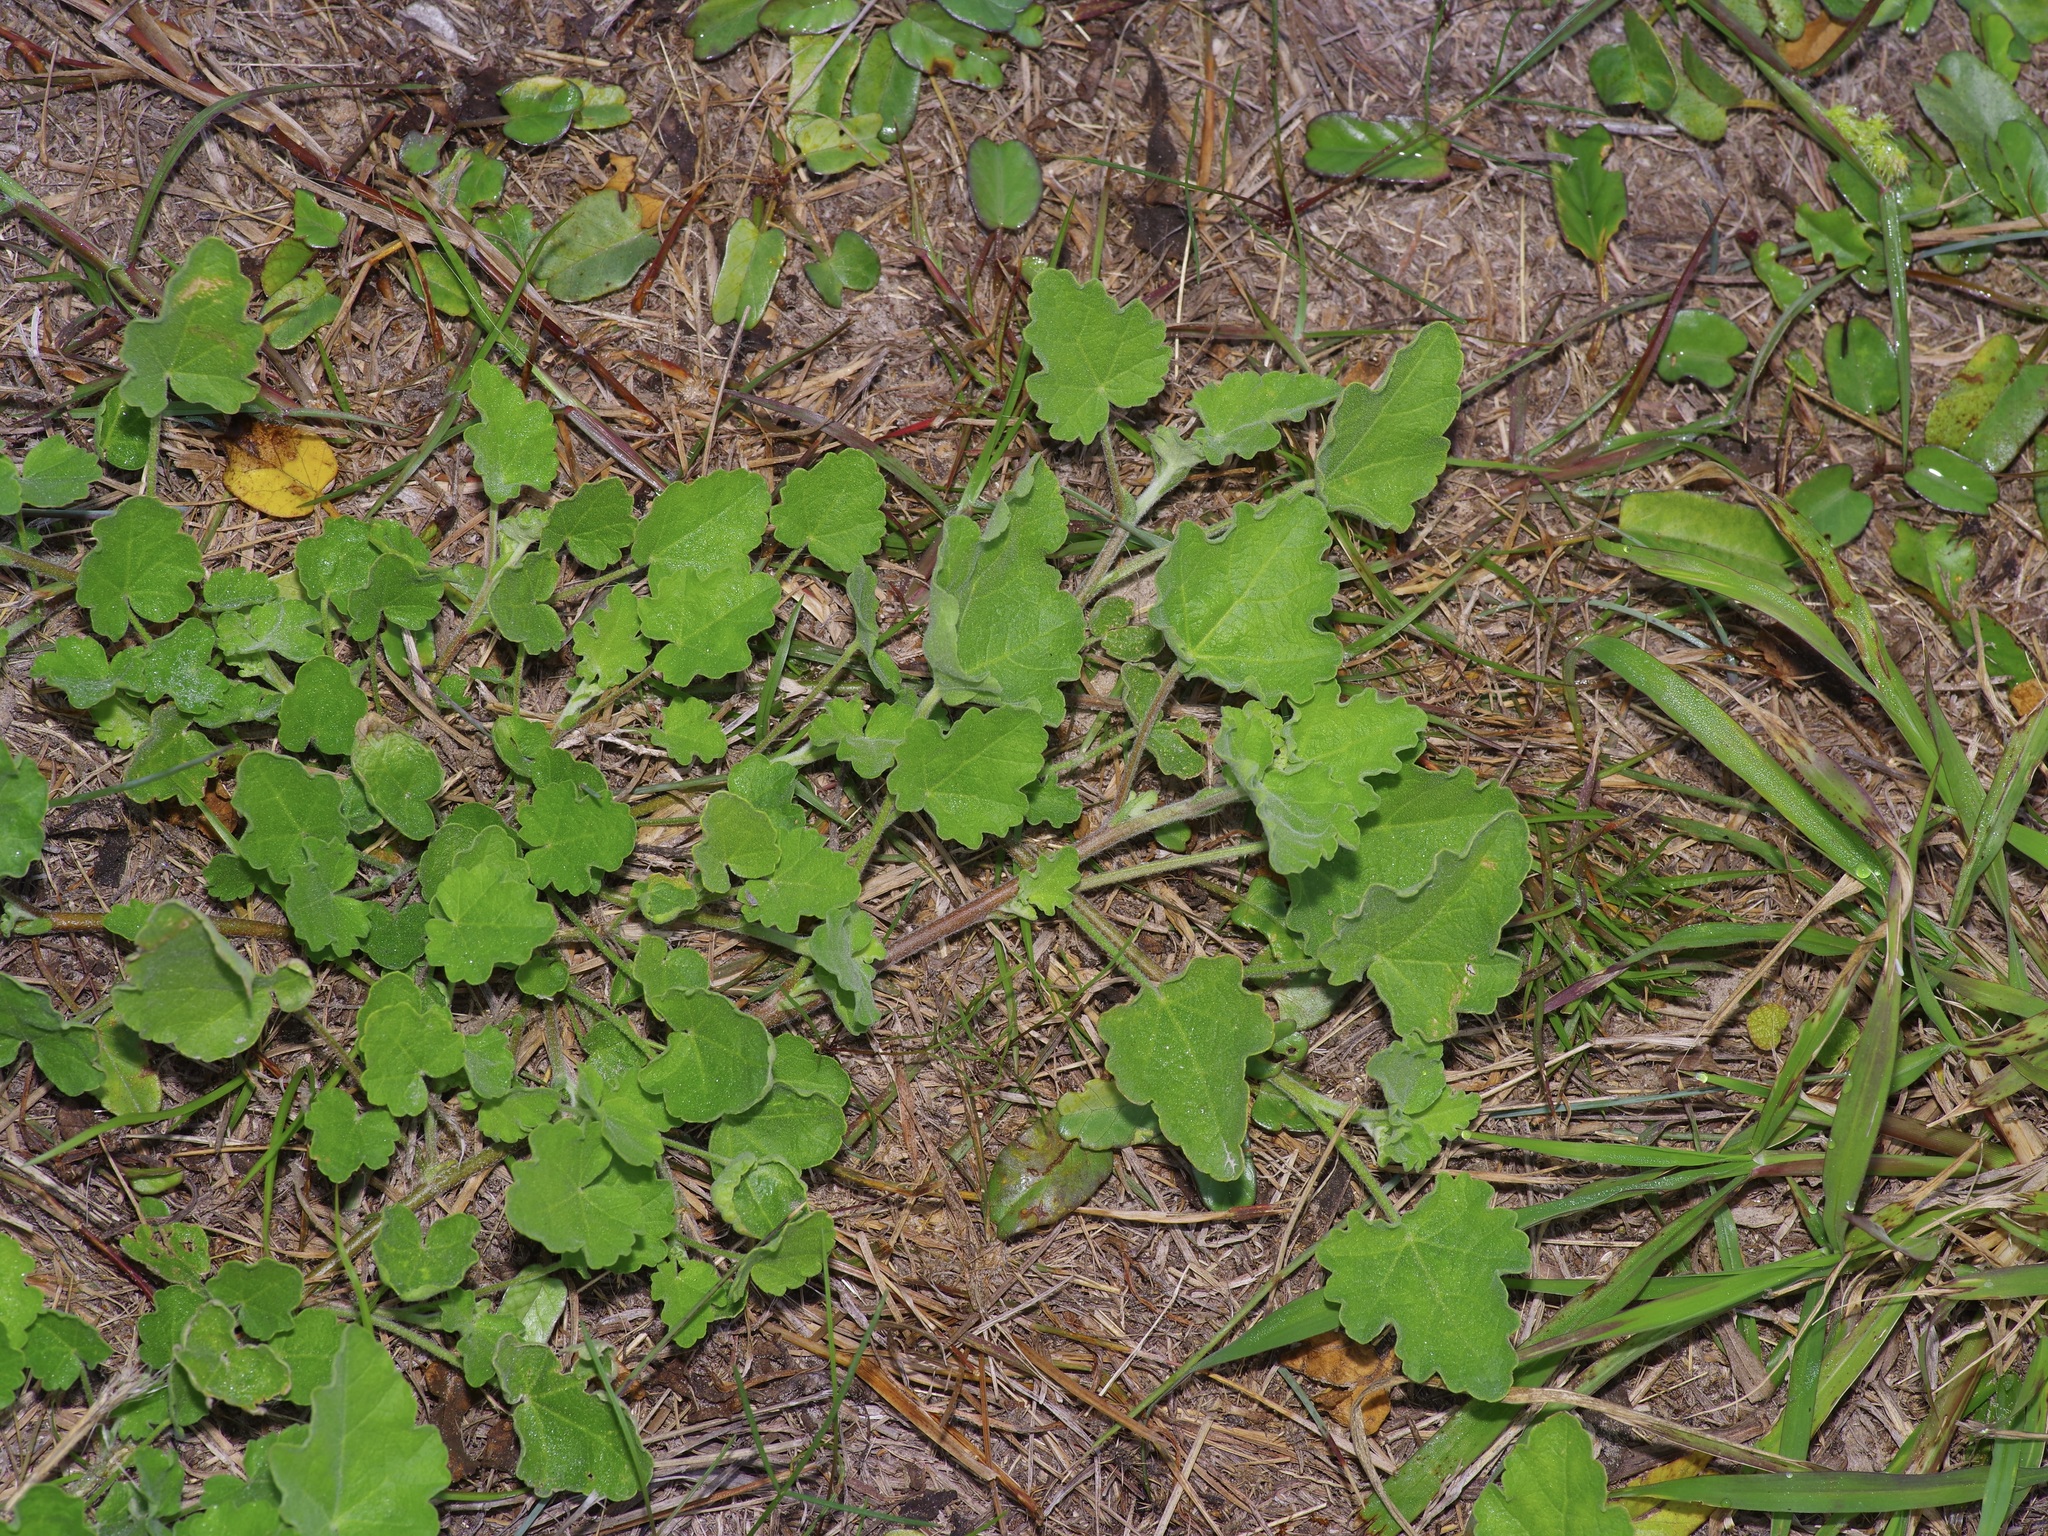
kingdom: Plantae
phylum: Tracheophyta
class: Magnoliopsida
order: Malvales
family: Malvaceae
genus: Sphaeralcea
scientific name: Sphaeralcea lindheimeri
